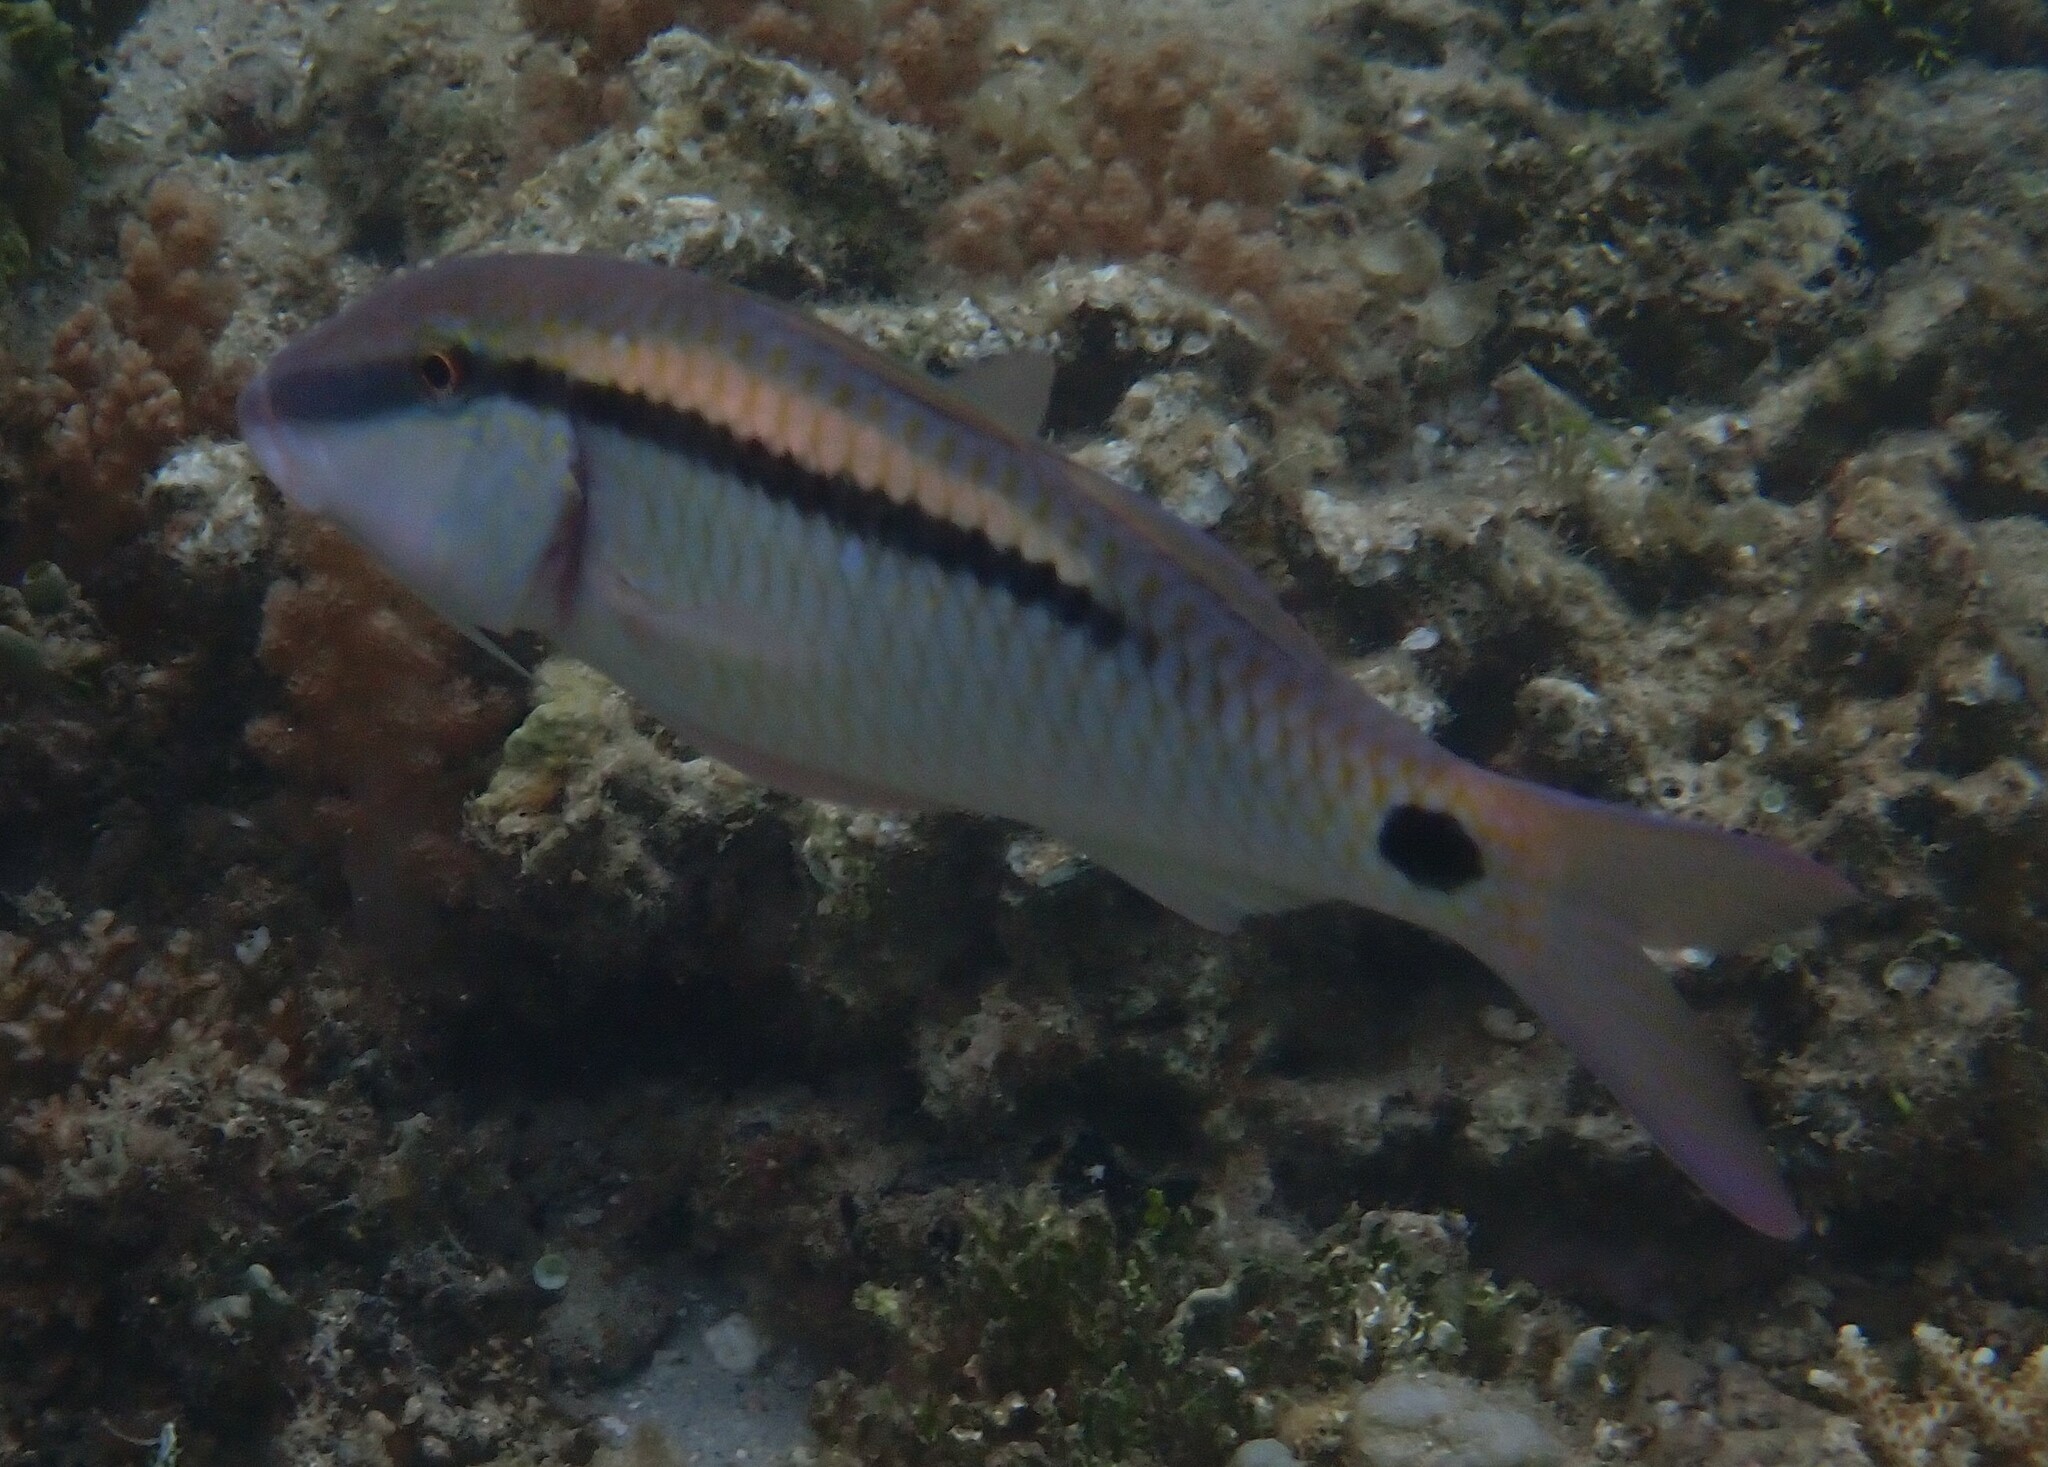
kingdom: Animalia
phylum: Chordata
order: Perciformes
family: Mullidae
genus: Parupeneus
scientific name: Parupeneus barberinus
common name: Dash-and-dot goatfish
